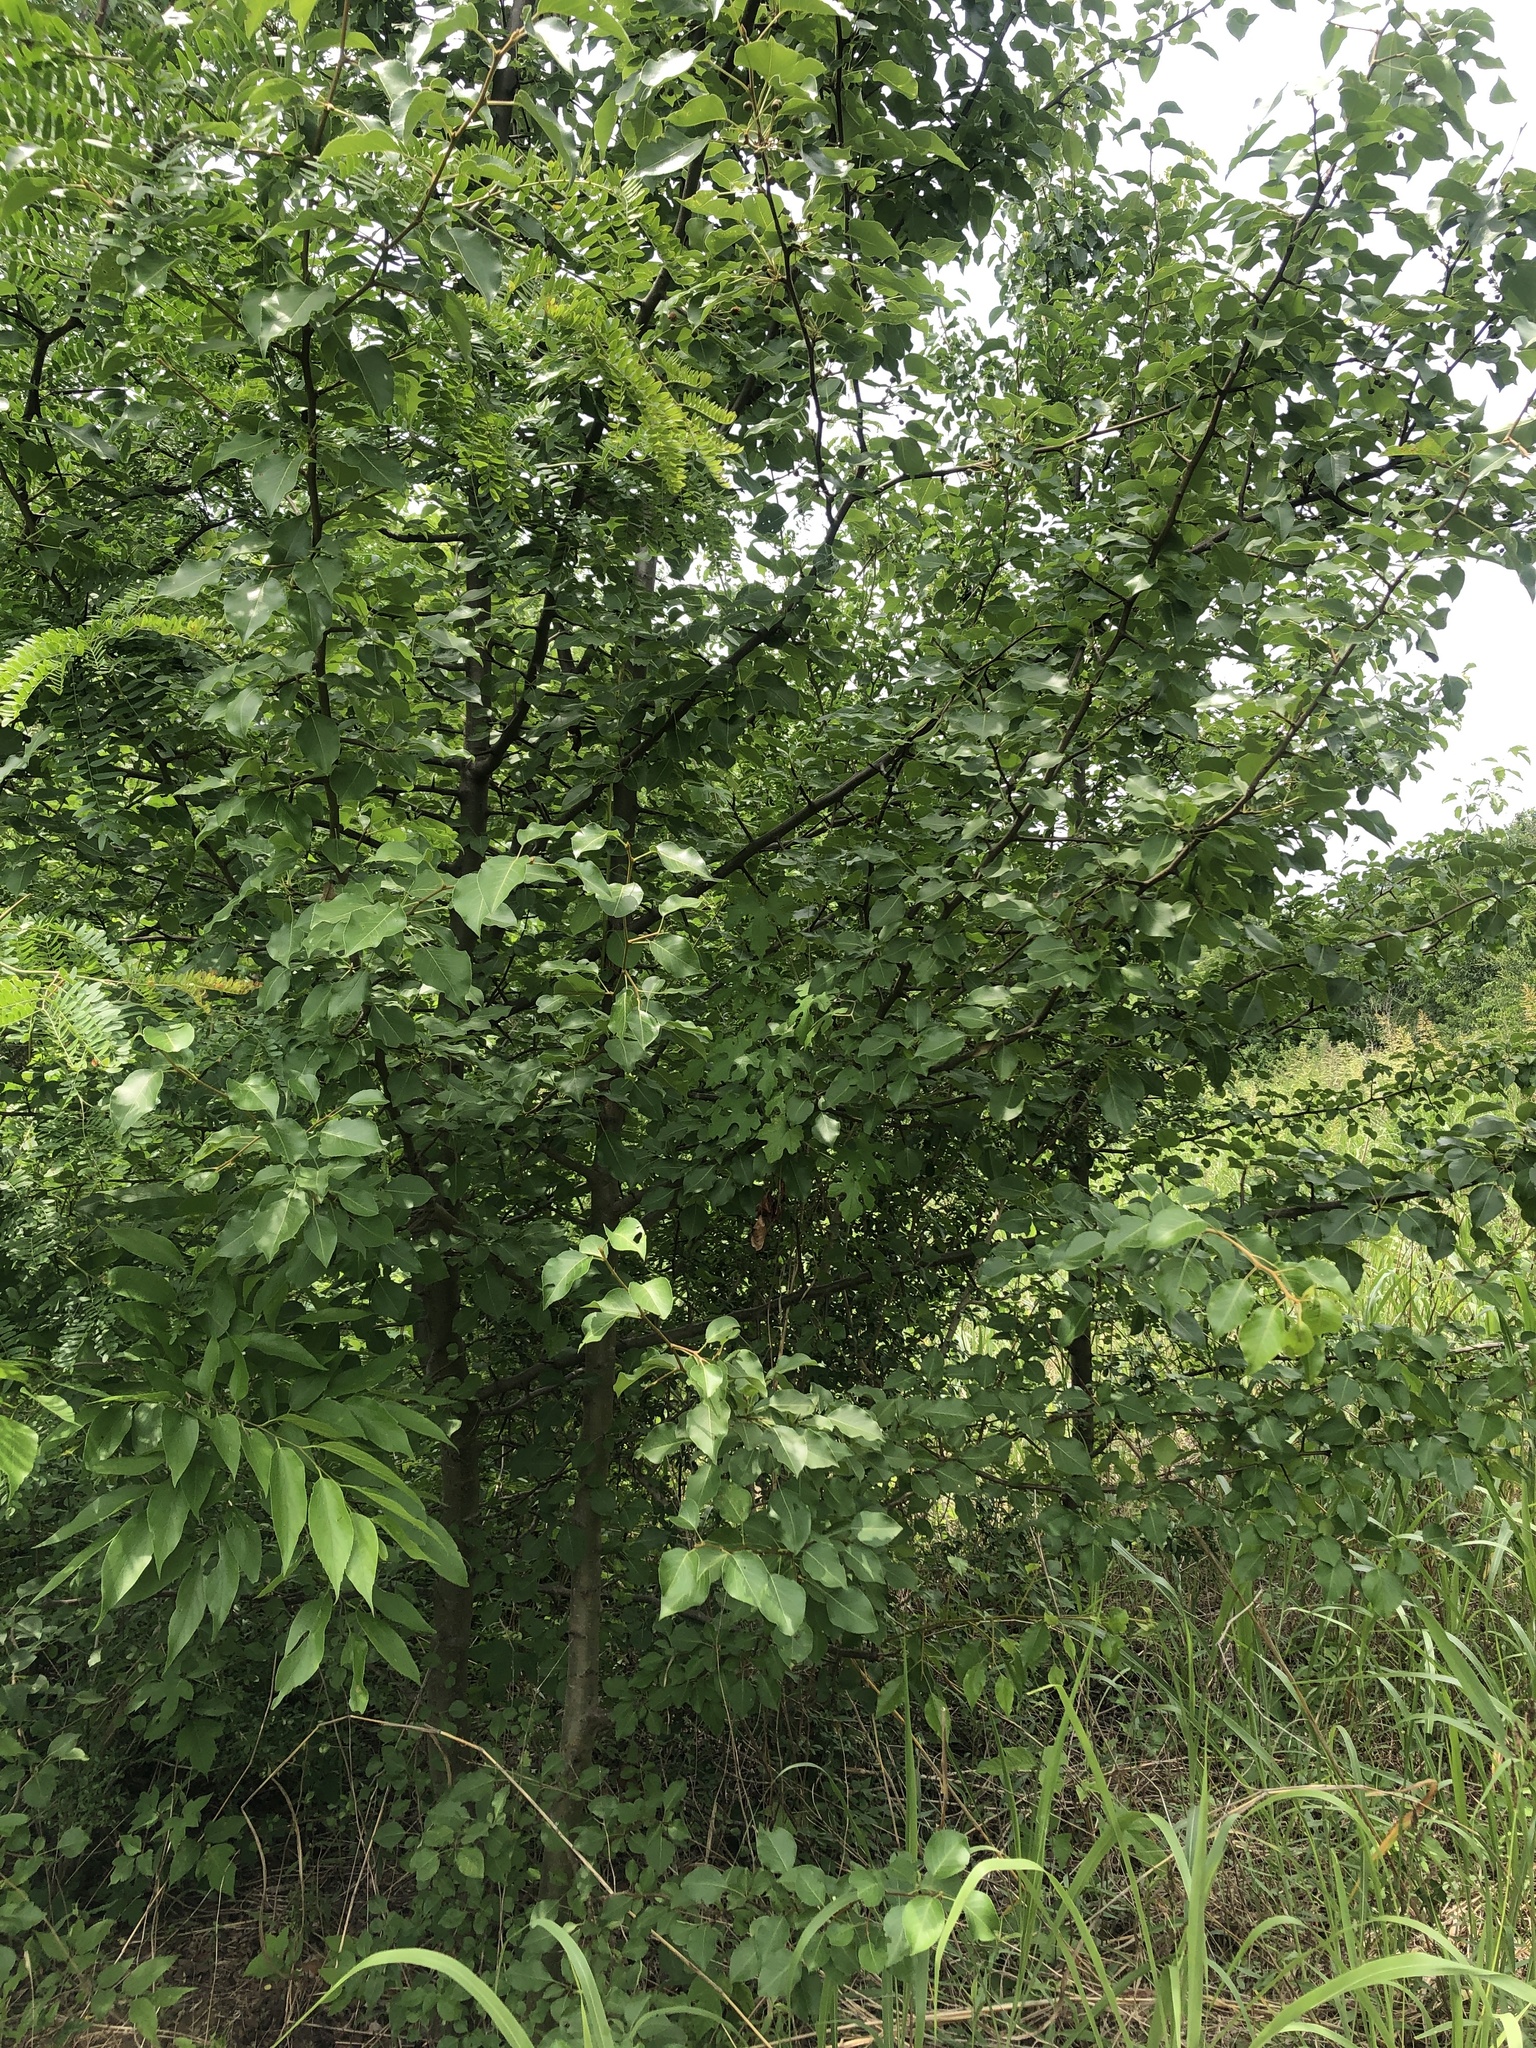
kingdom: Plantae
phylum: Tracheophyta
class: Magnoliopsida
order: Rosales
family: Rosaceae
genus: Pyrus
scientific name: Pyrus calleryana
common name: Callery pear
